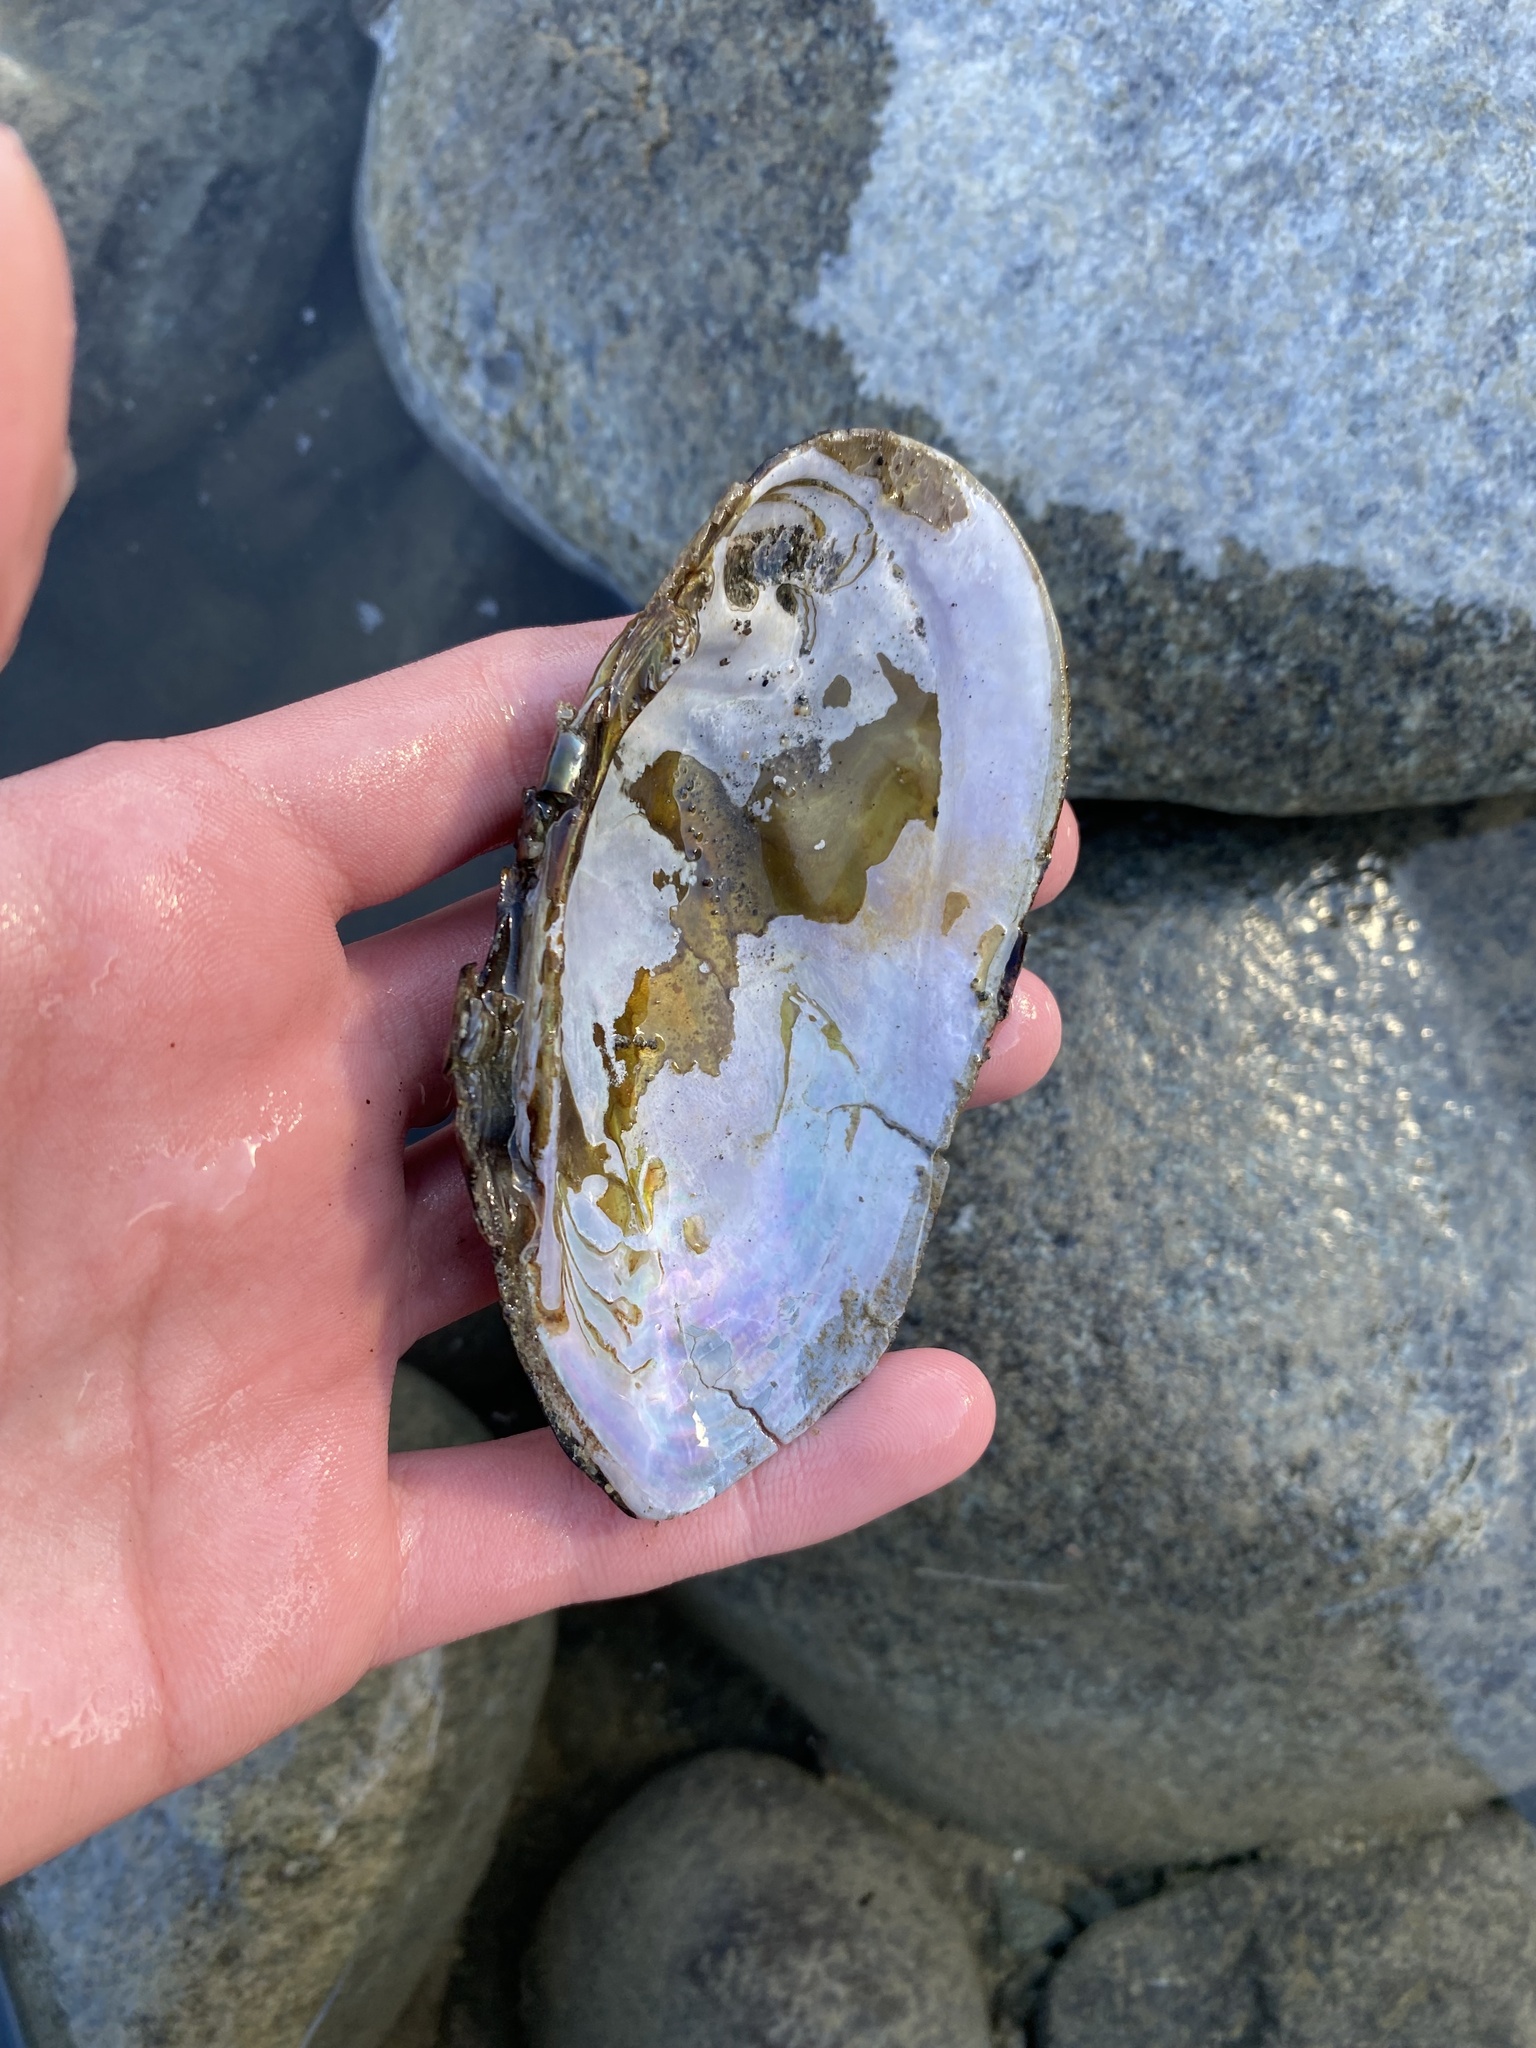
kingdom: Animalia
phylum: Mollusca
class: Bivalvia
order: Unionida
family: Margaritiferidae
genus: Margaritifera
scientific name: Margaritifera falcata
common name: Western pearlshell
